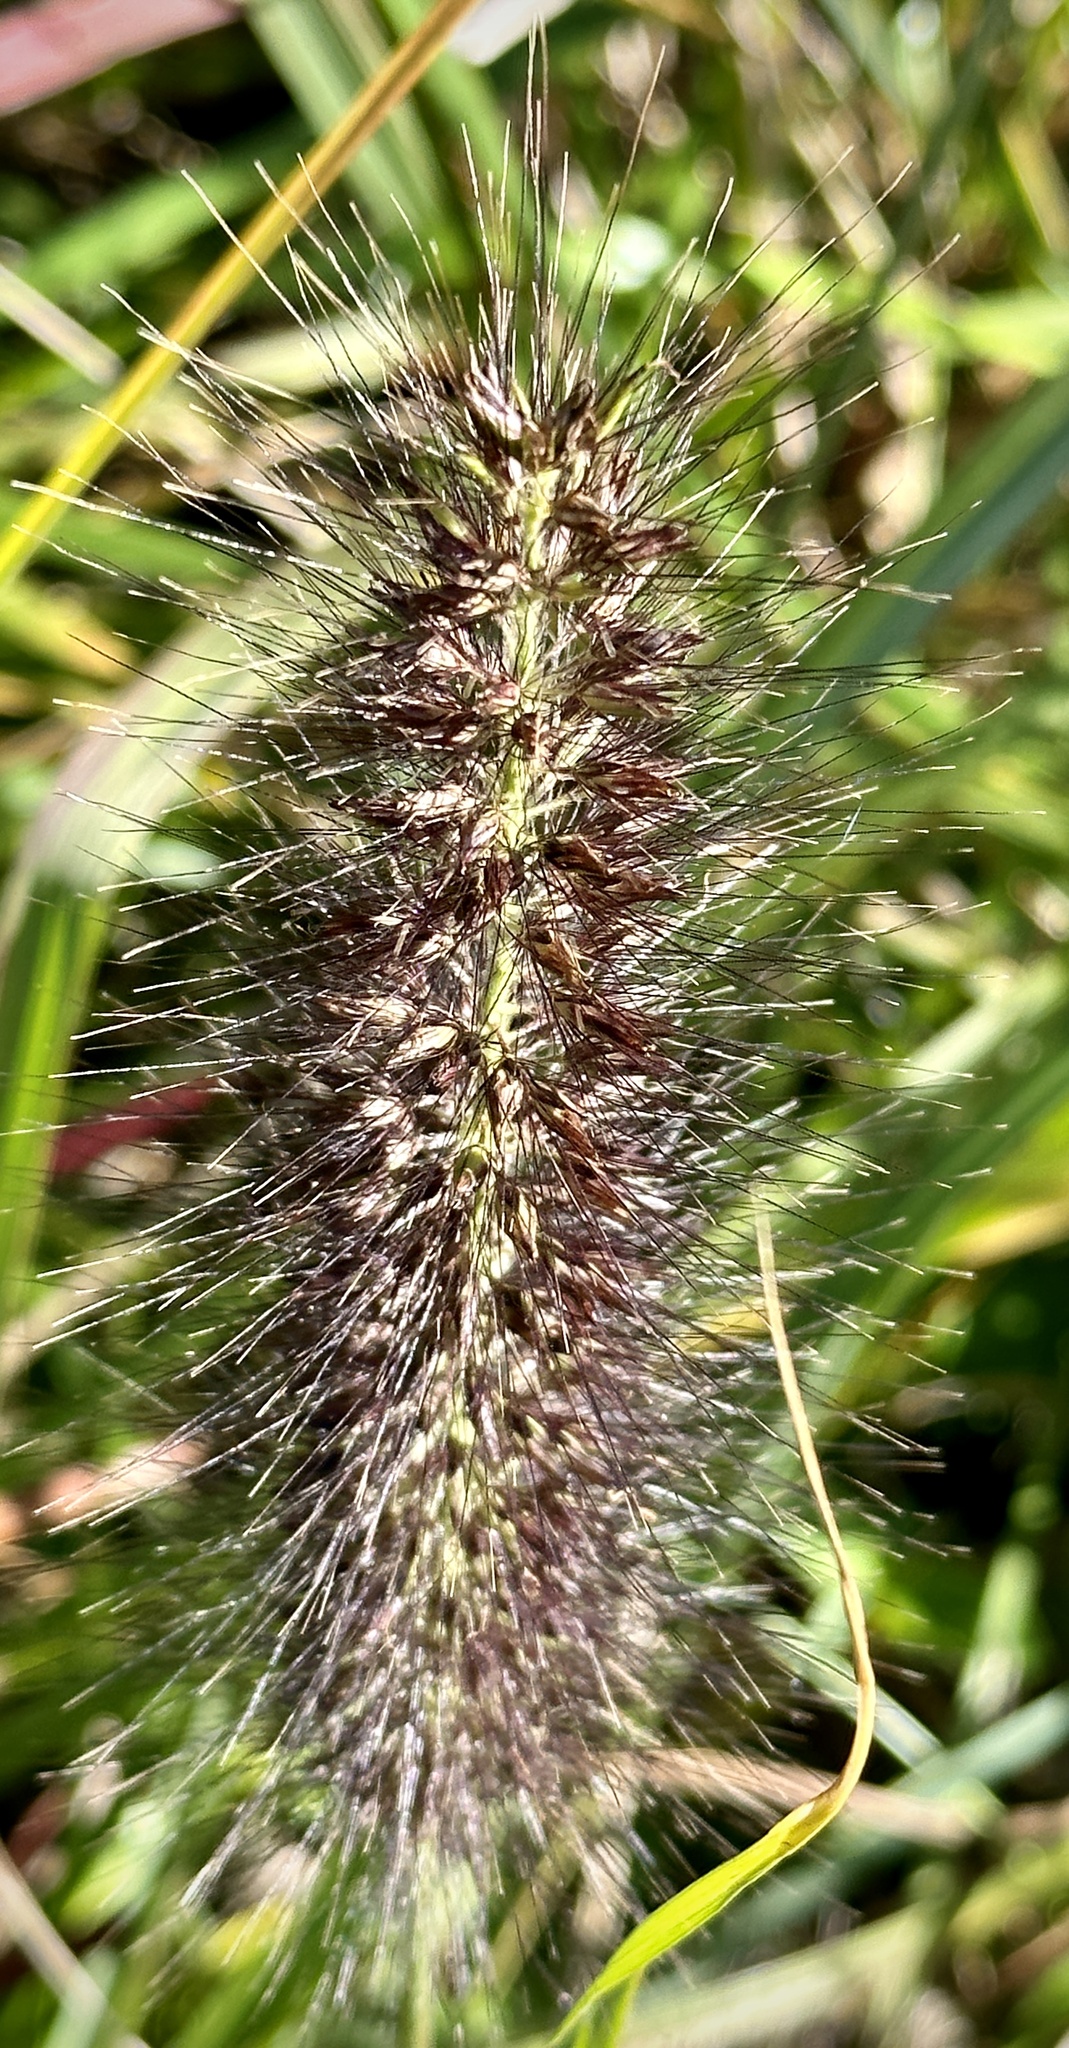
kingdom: Plantae
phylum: Tracheophyta
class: Liliopsida
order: Poales
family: Poaceae
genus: Cenchrus
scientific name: Cenchrus alopecuroides
